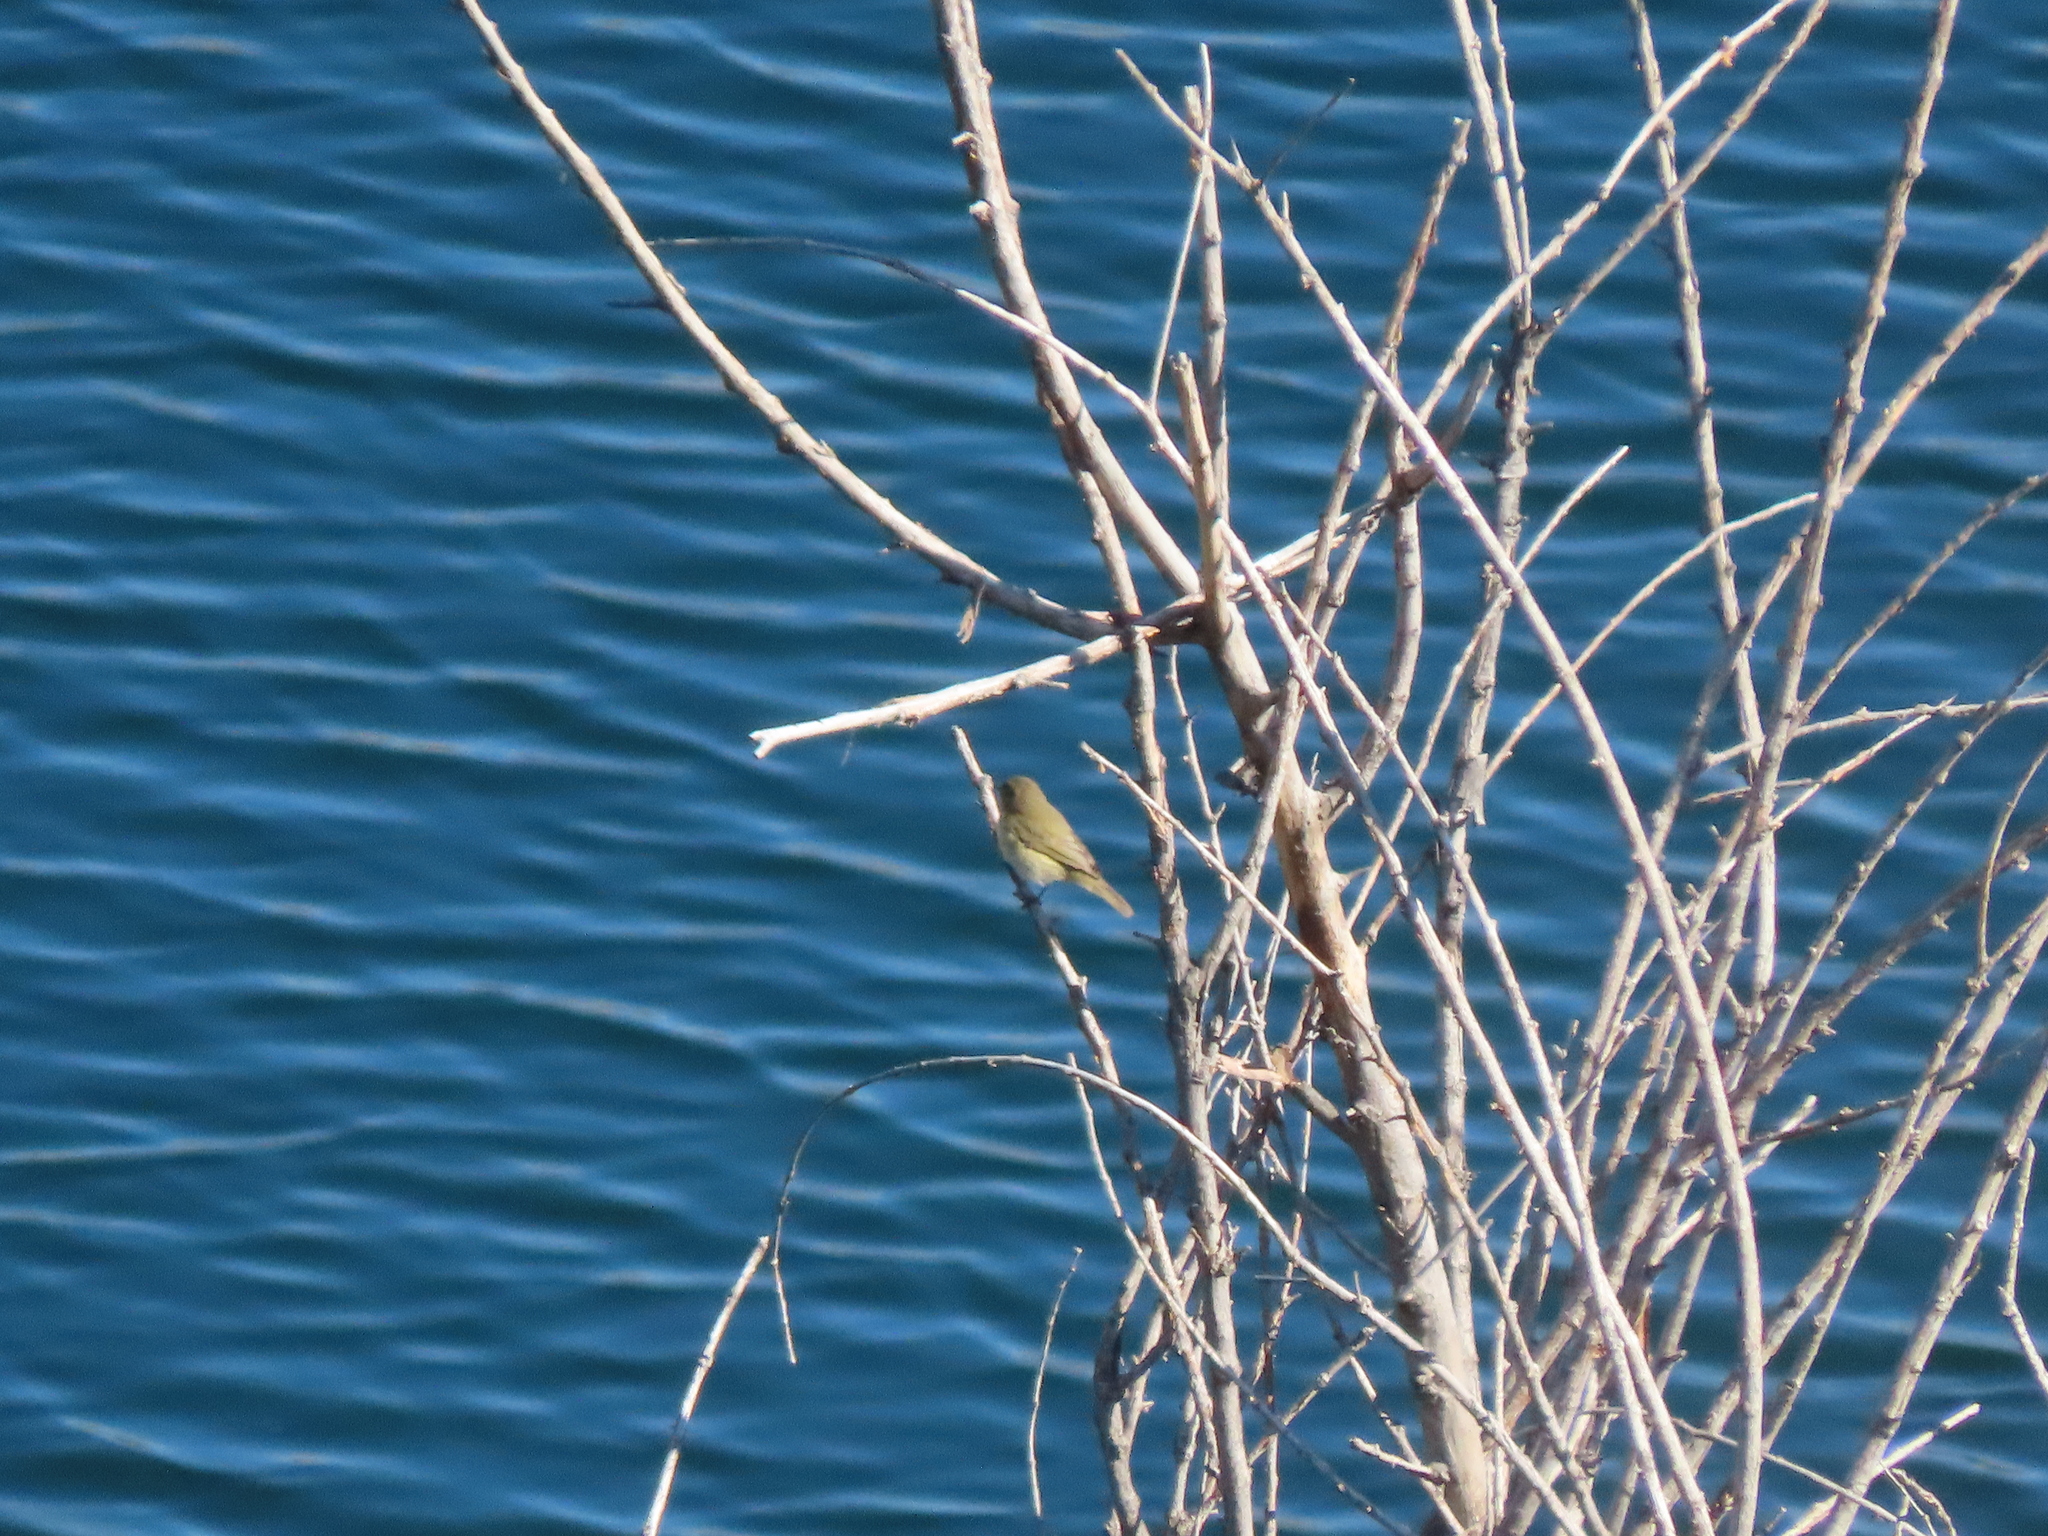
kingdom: Animalia
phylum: Chordata
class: Aves
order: Passeriformes
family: Phylloscopidae
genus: Phylloscopus
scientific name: Phylloscopus collybita
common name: Common chiffchaff
